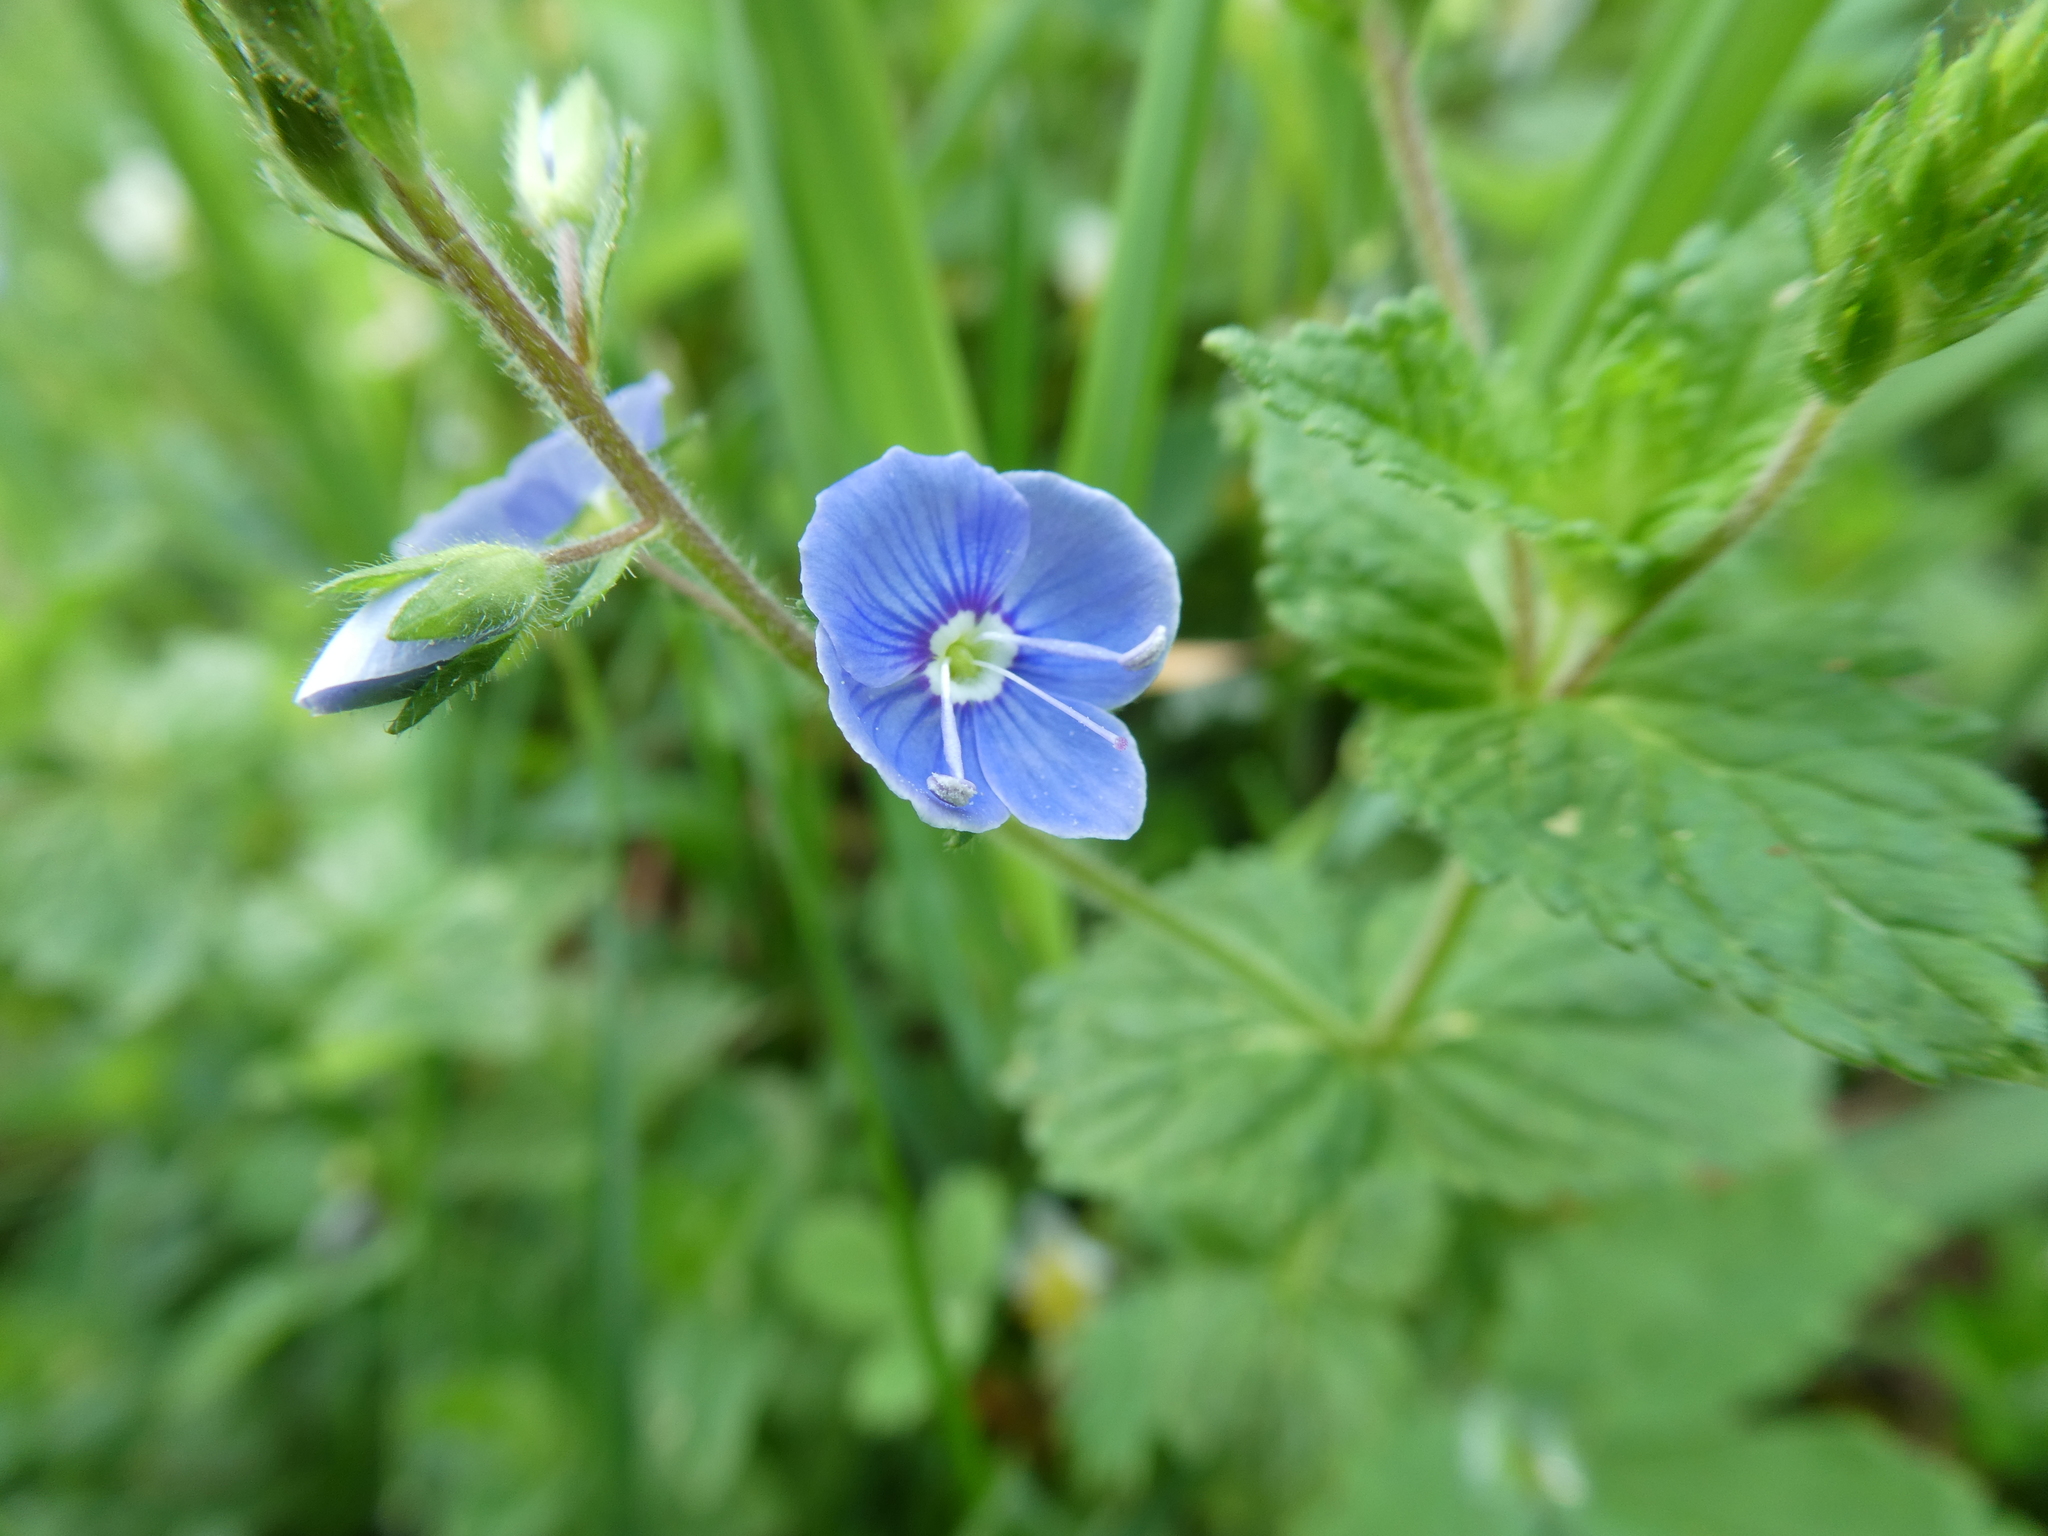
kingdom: Plantae
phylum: Tracheophyta
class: Magnoliopsida
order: Lamiales
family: Plantaginaceae
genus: Veronica
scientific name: Veronica chamaedrys
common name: Germander speedwell
